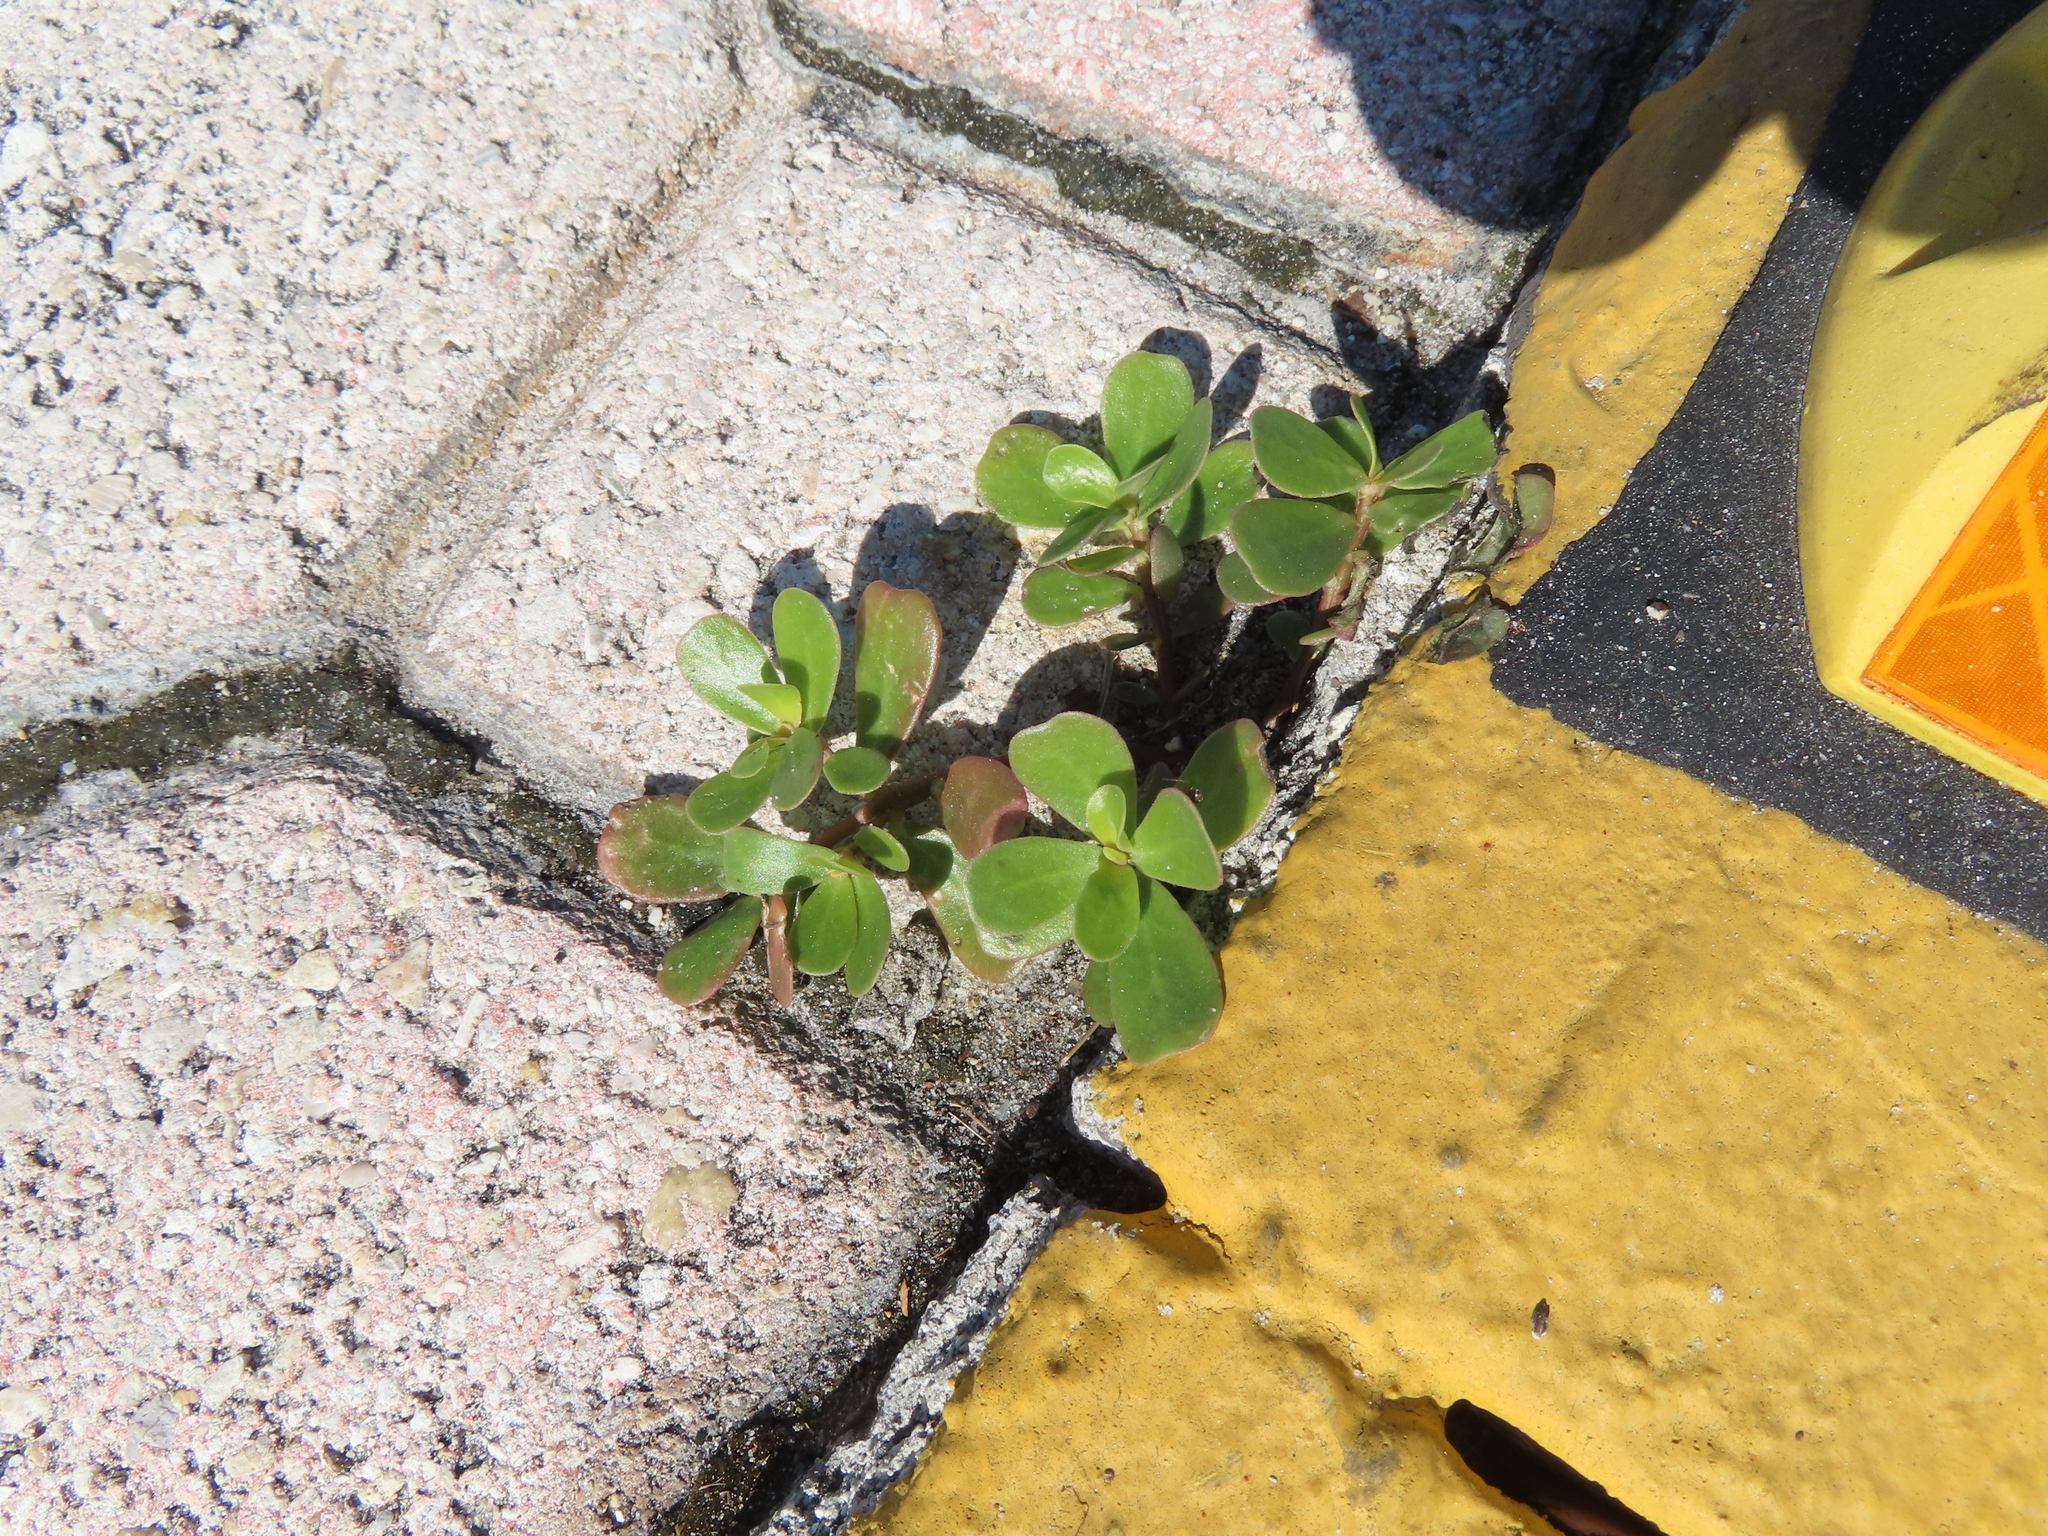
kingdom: Plantae
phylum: Tracheophyta
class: Magnoliopsida
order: Caryophyllales
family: Portulacaceae
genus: Portulaca
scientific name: Portulaca oleracea
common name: Common purslane
